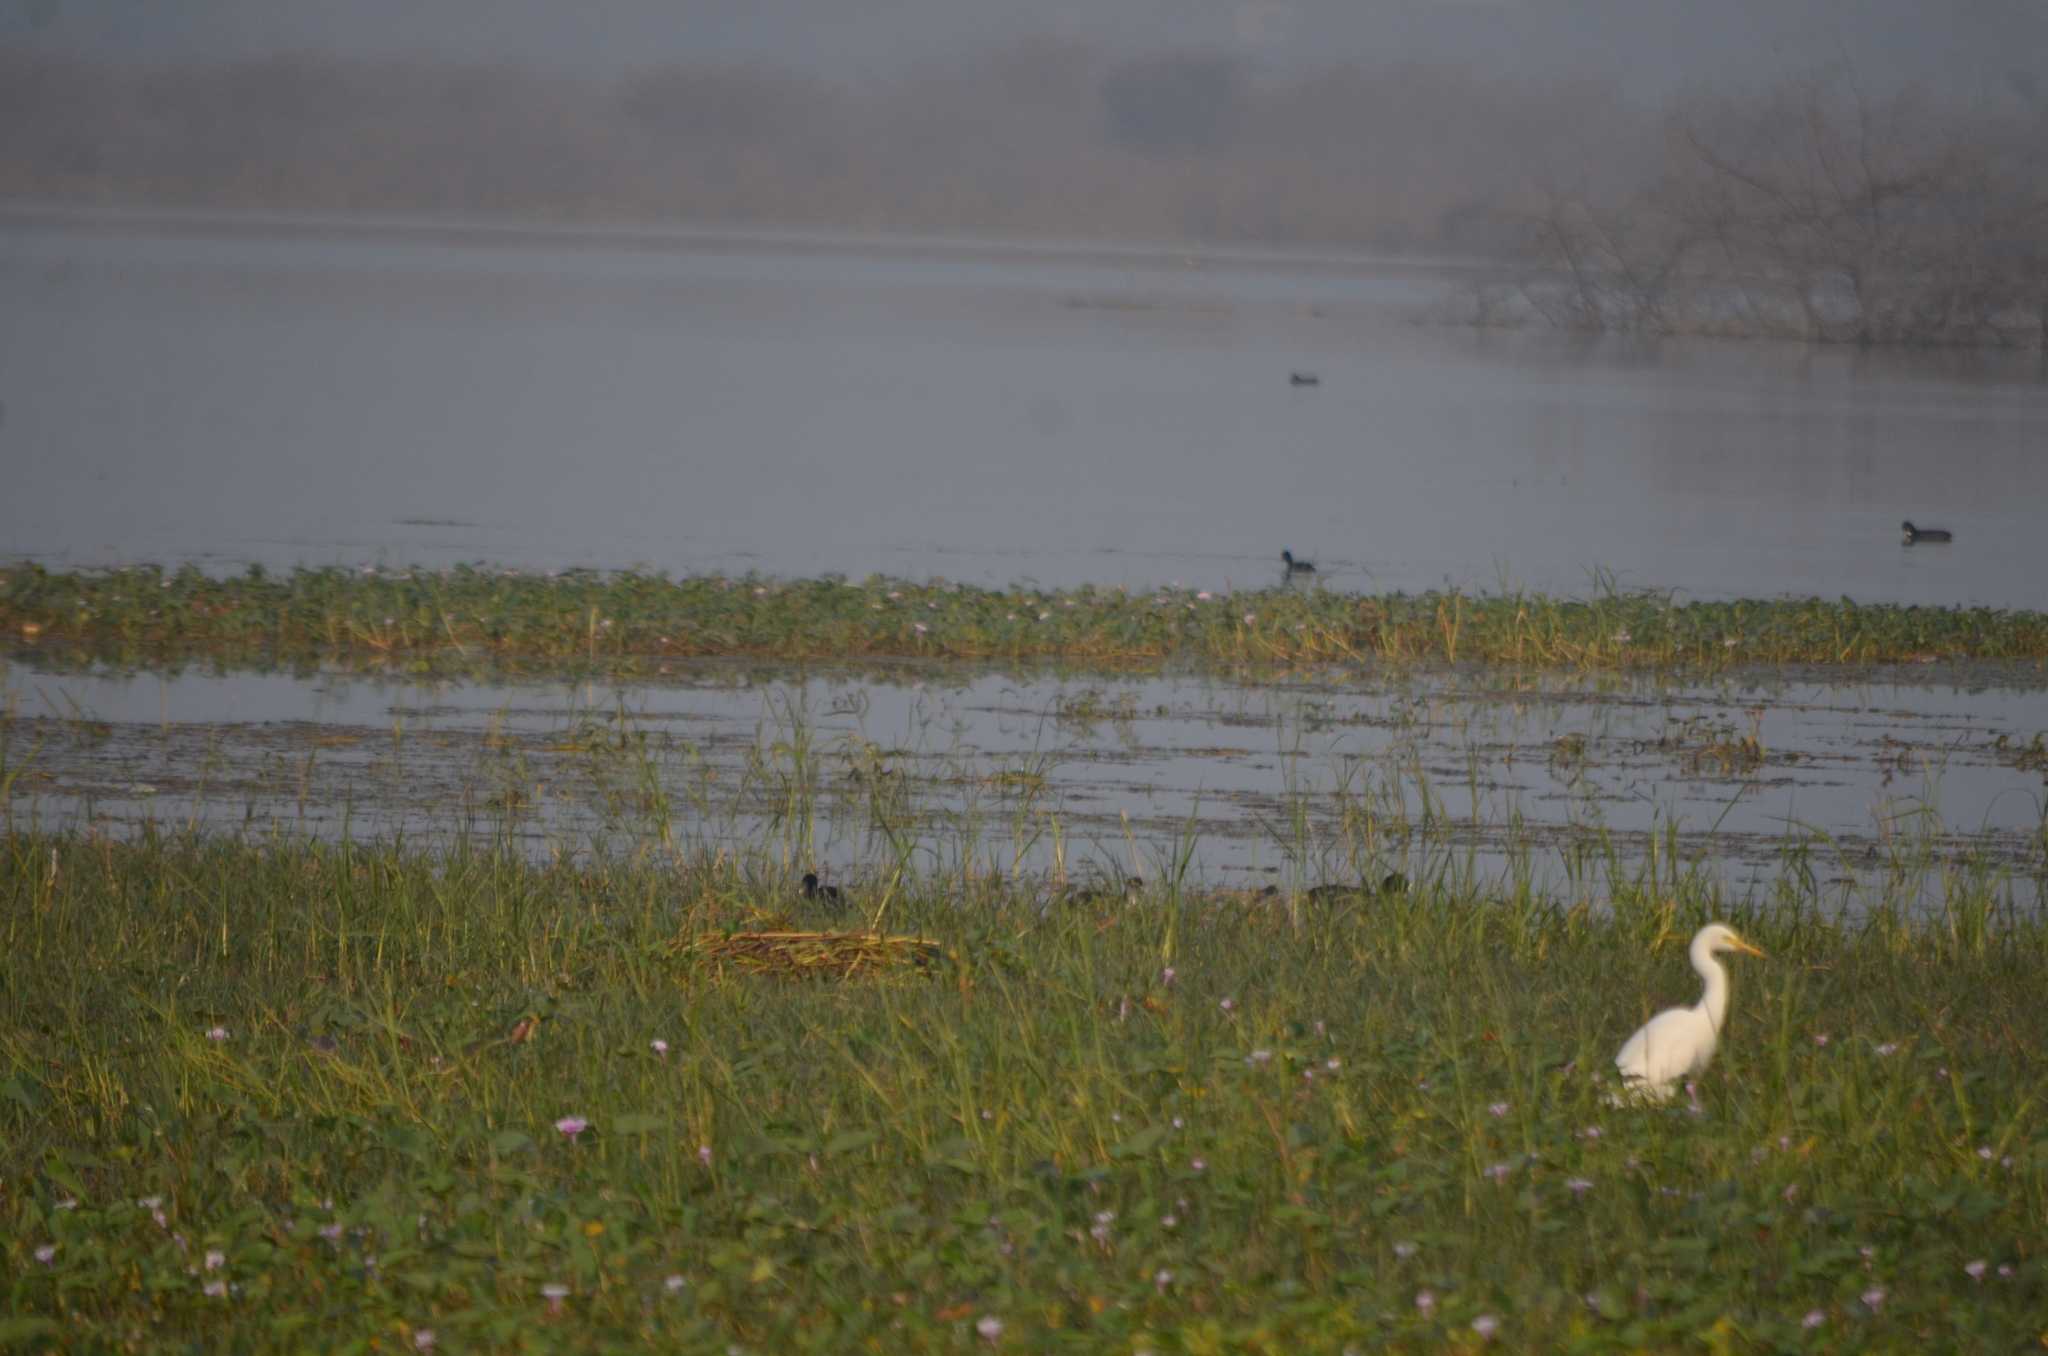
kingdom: Animalia
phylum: Chordata
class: Aves
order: Pelecaniformes
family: Ardeidae
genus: Egretta
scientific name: Egretta intermedia
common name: Intermediate egret
